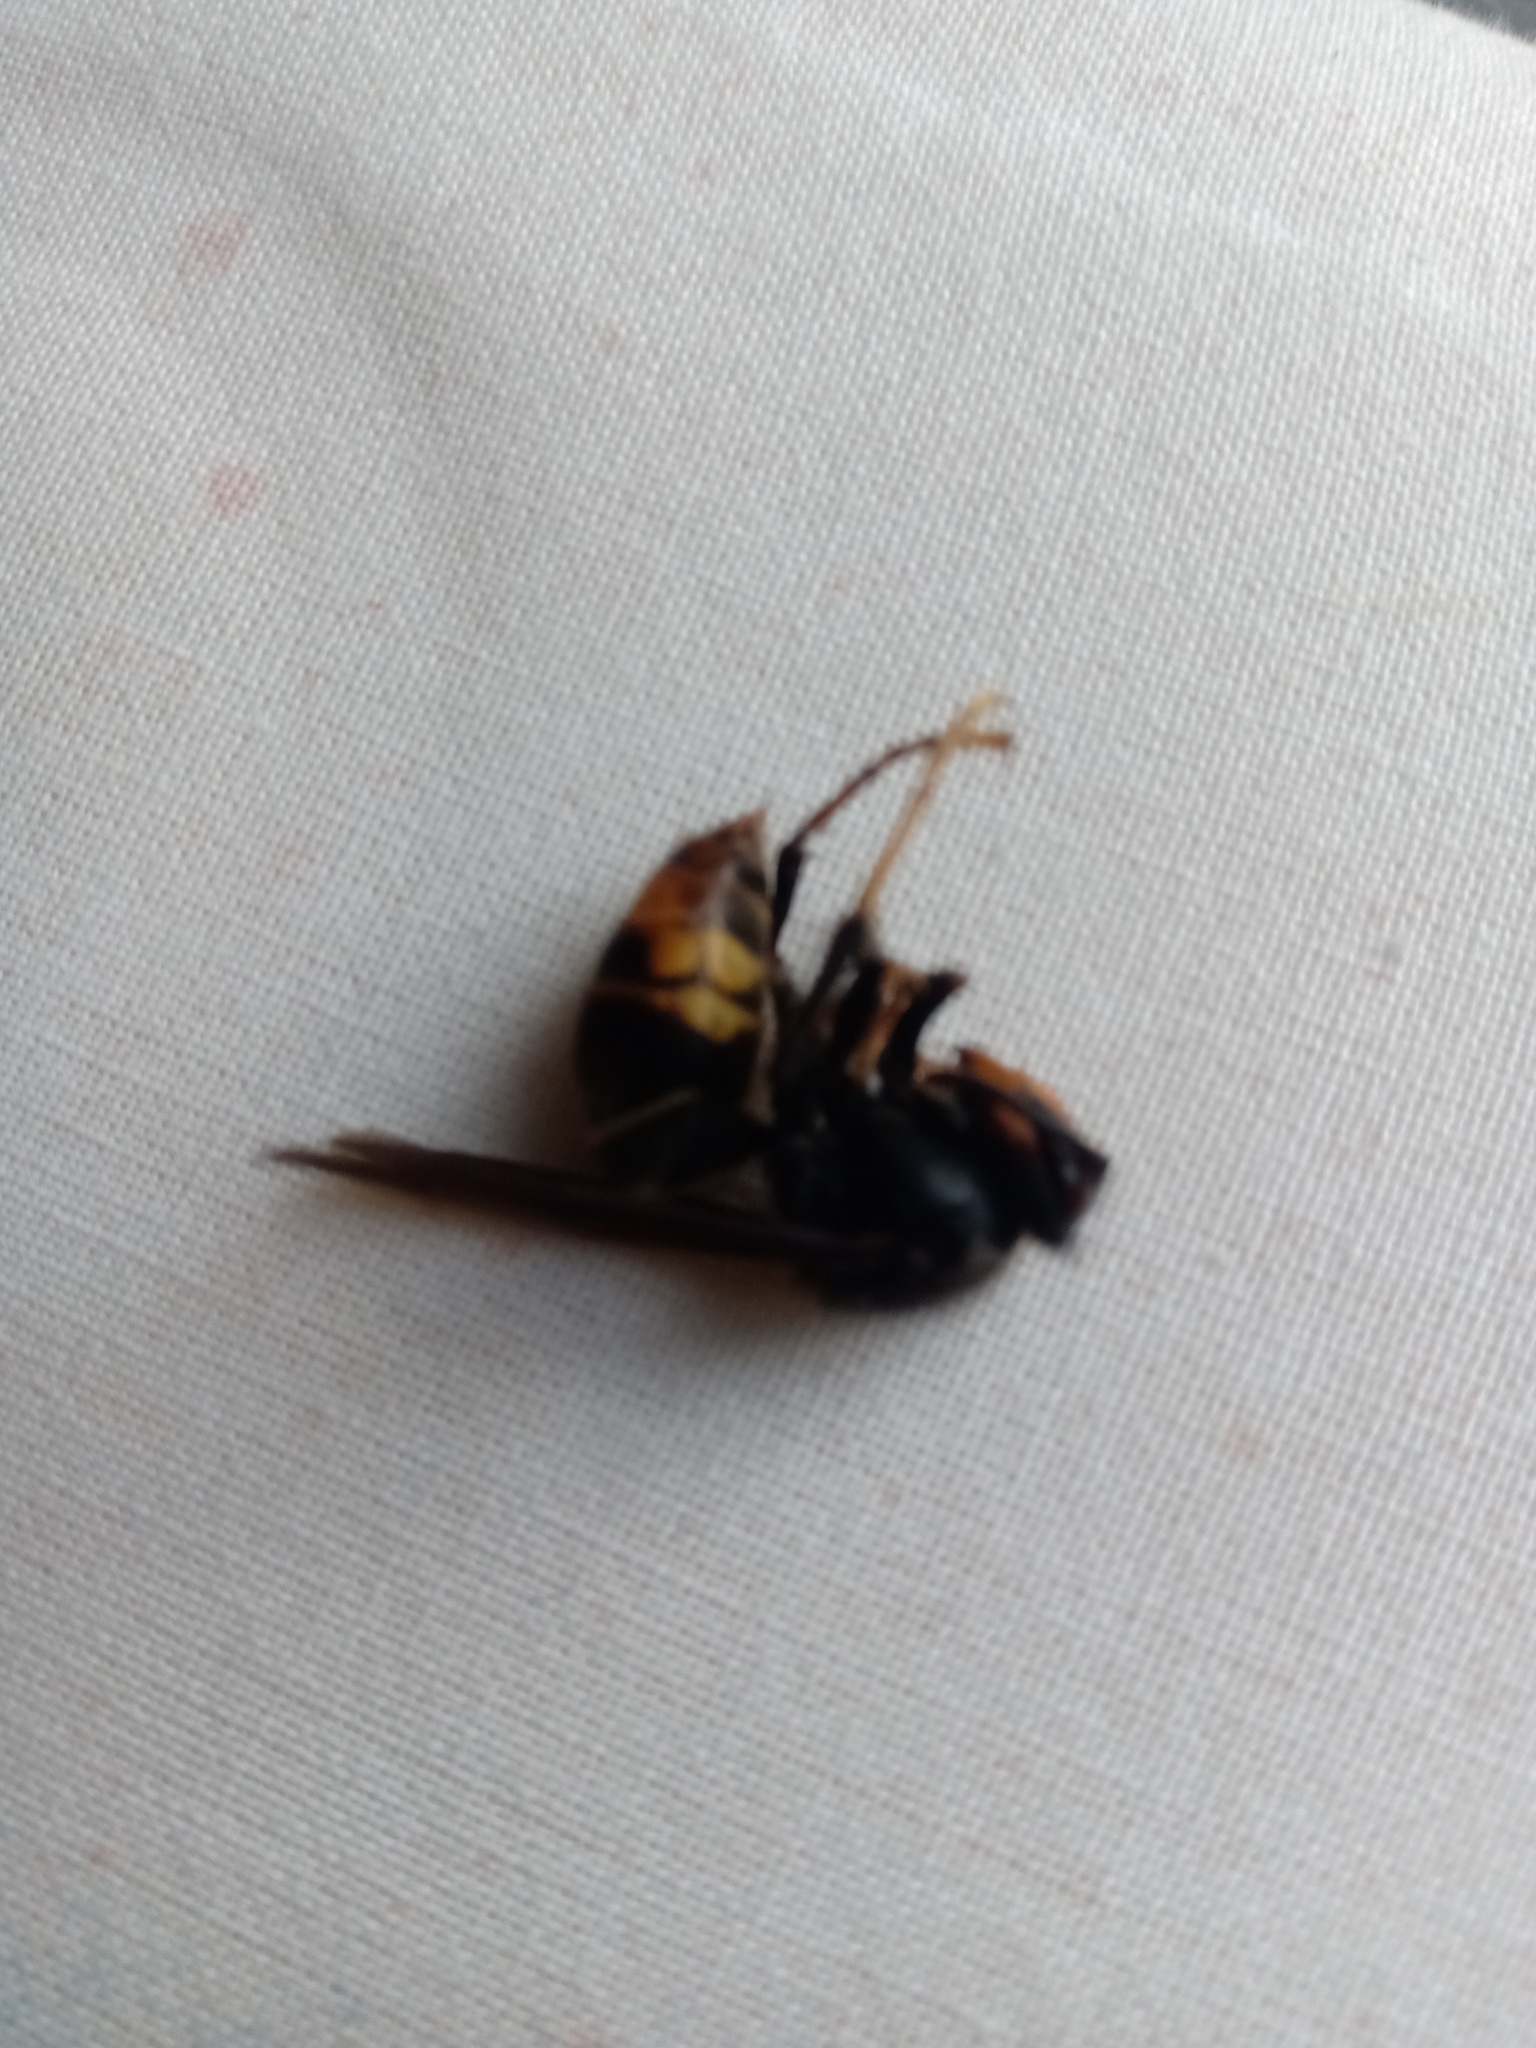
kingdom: Animalia
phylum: Arthropoda
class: Insecta
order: Hymenoptera
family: Vespidae
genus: Vespa
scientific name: Vespa velutina
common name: Asian hornet
